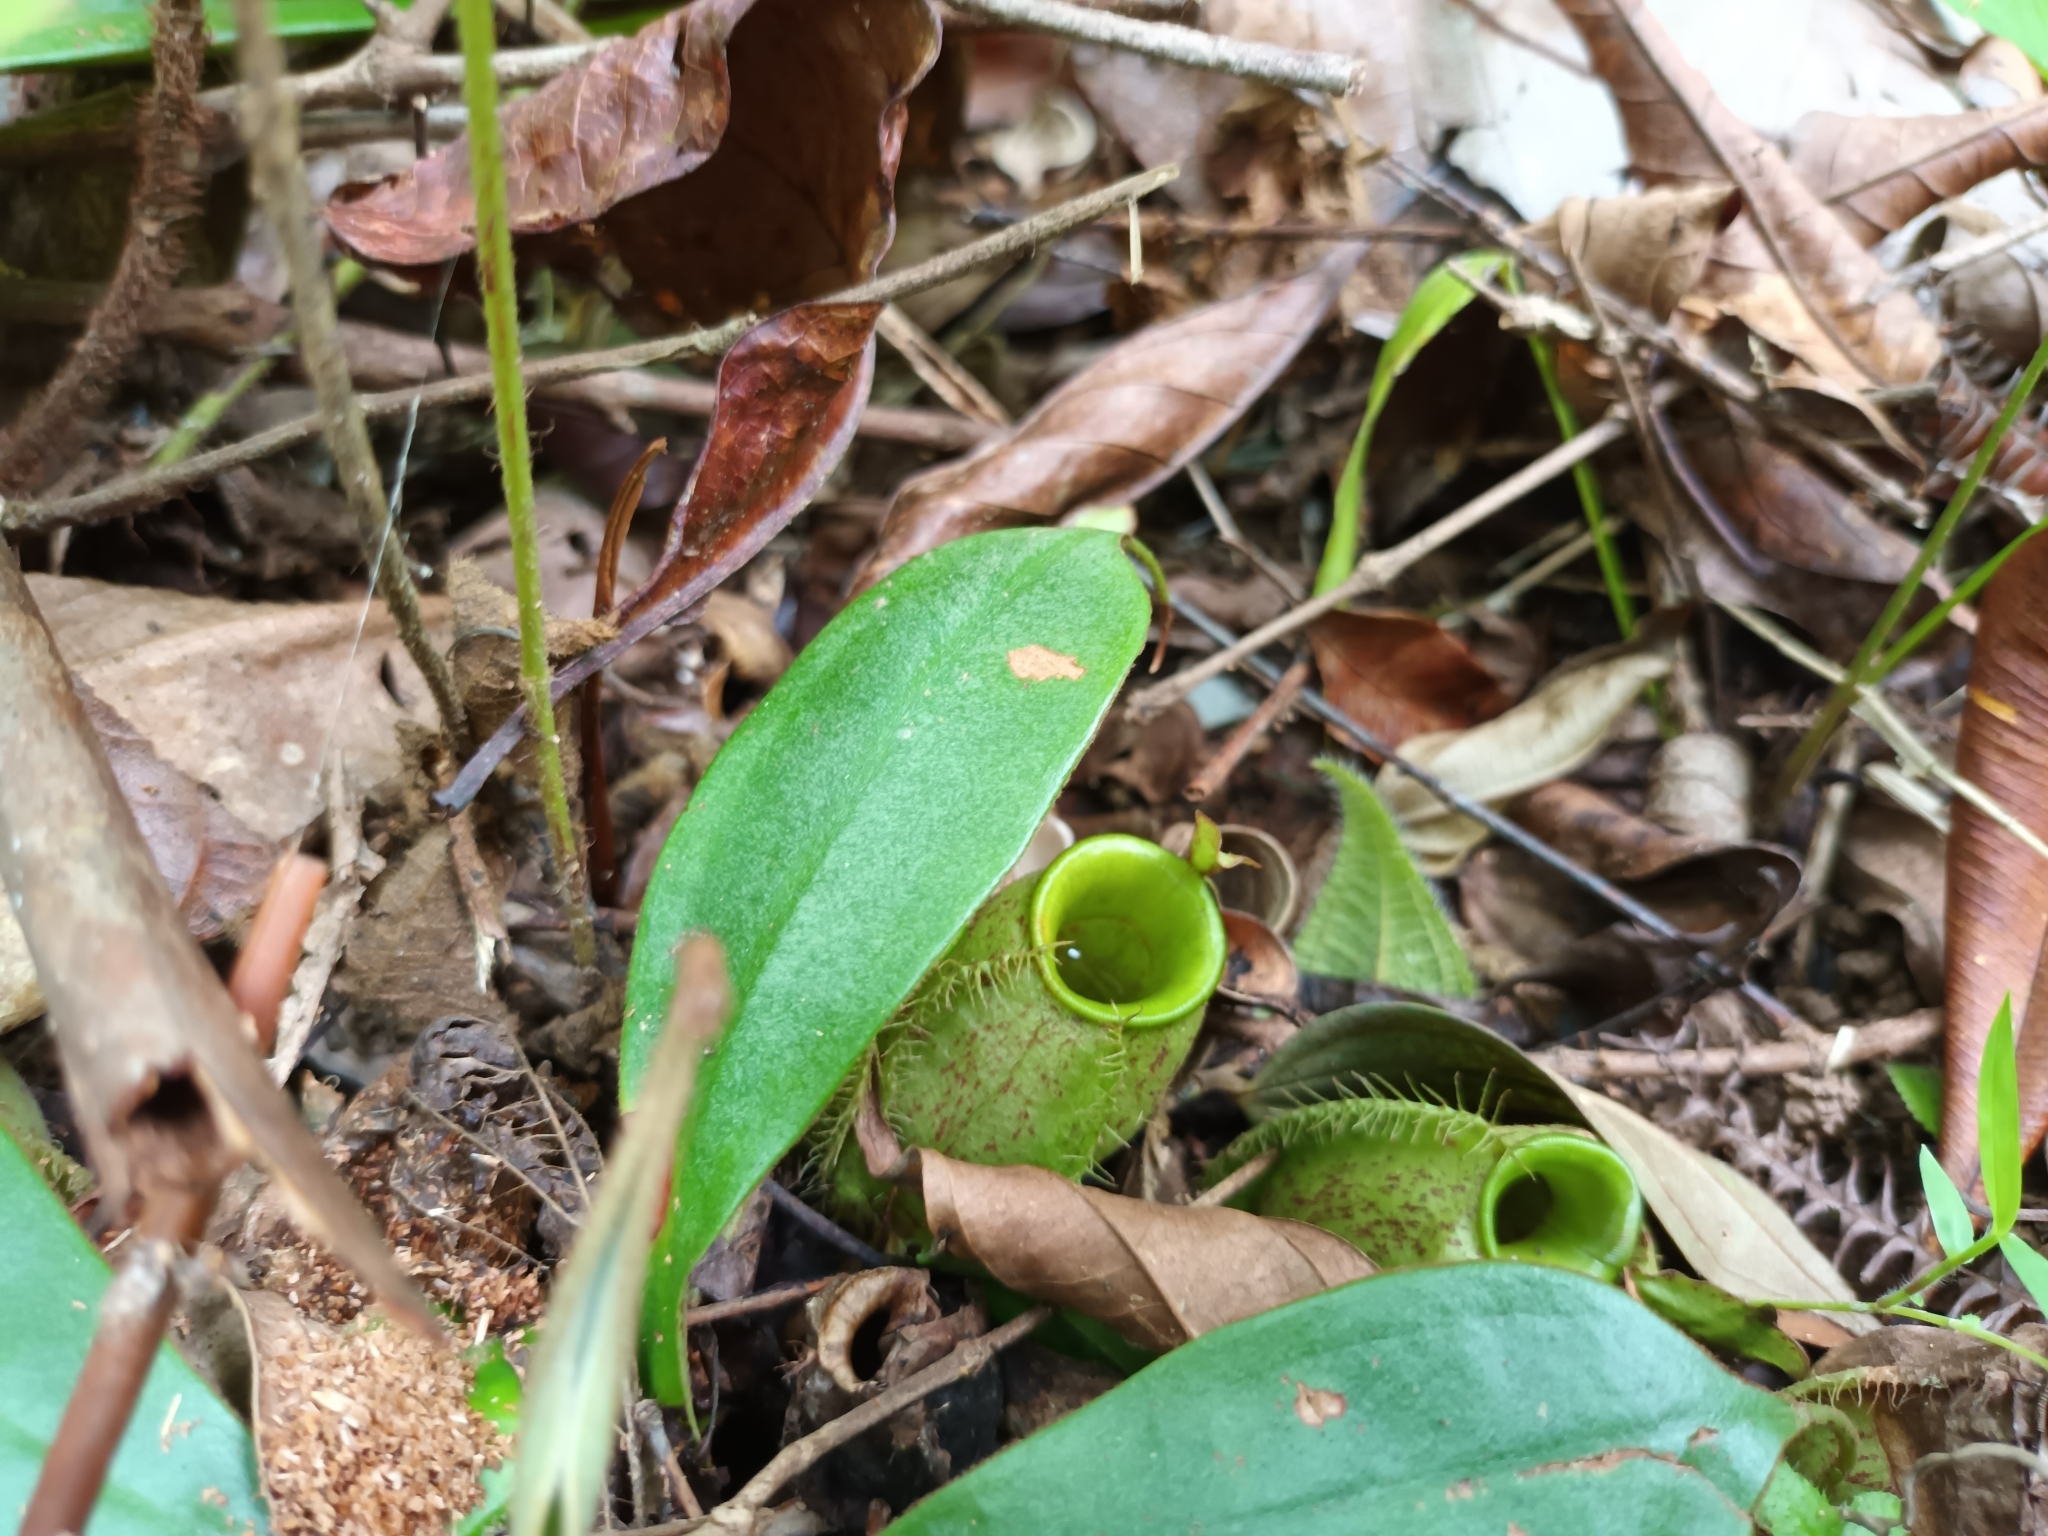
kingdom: Plantae
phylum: Tracheophyta
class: Magnoliopsida
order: Caryophyllales
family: Nepenthaceae
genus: Nepenthes
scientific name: Nepenthes ampullaria
